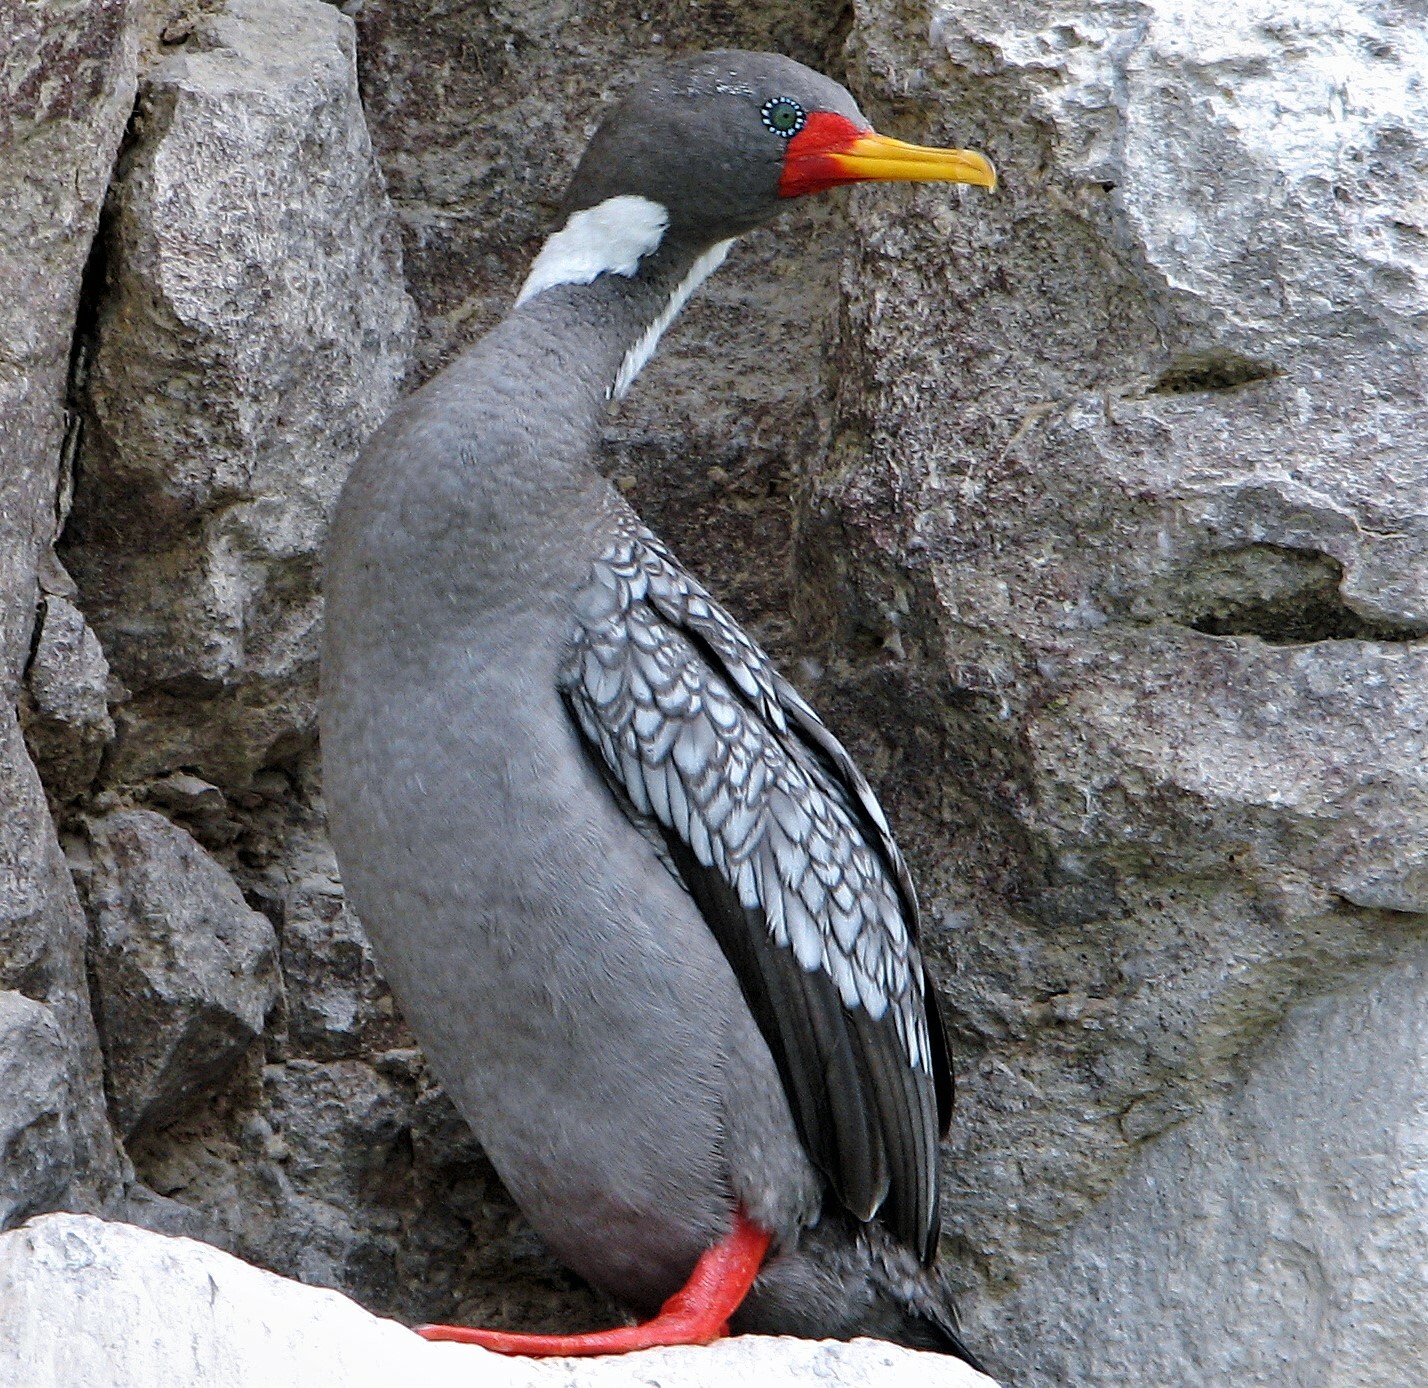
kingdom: Animalia
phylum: Chordata
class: Aves
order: Suliformes
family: Phalacrocoracidae
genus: Phalacrocorax
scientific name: Phalacrocorax gaimardi
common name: Red-legged cormorant
